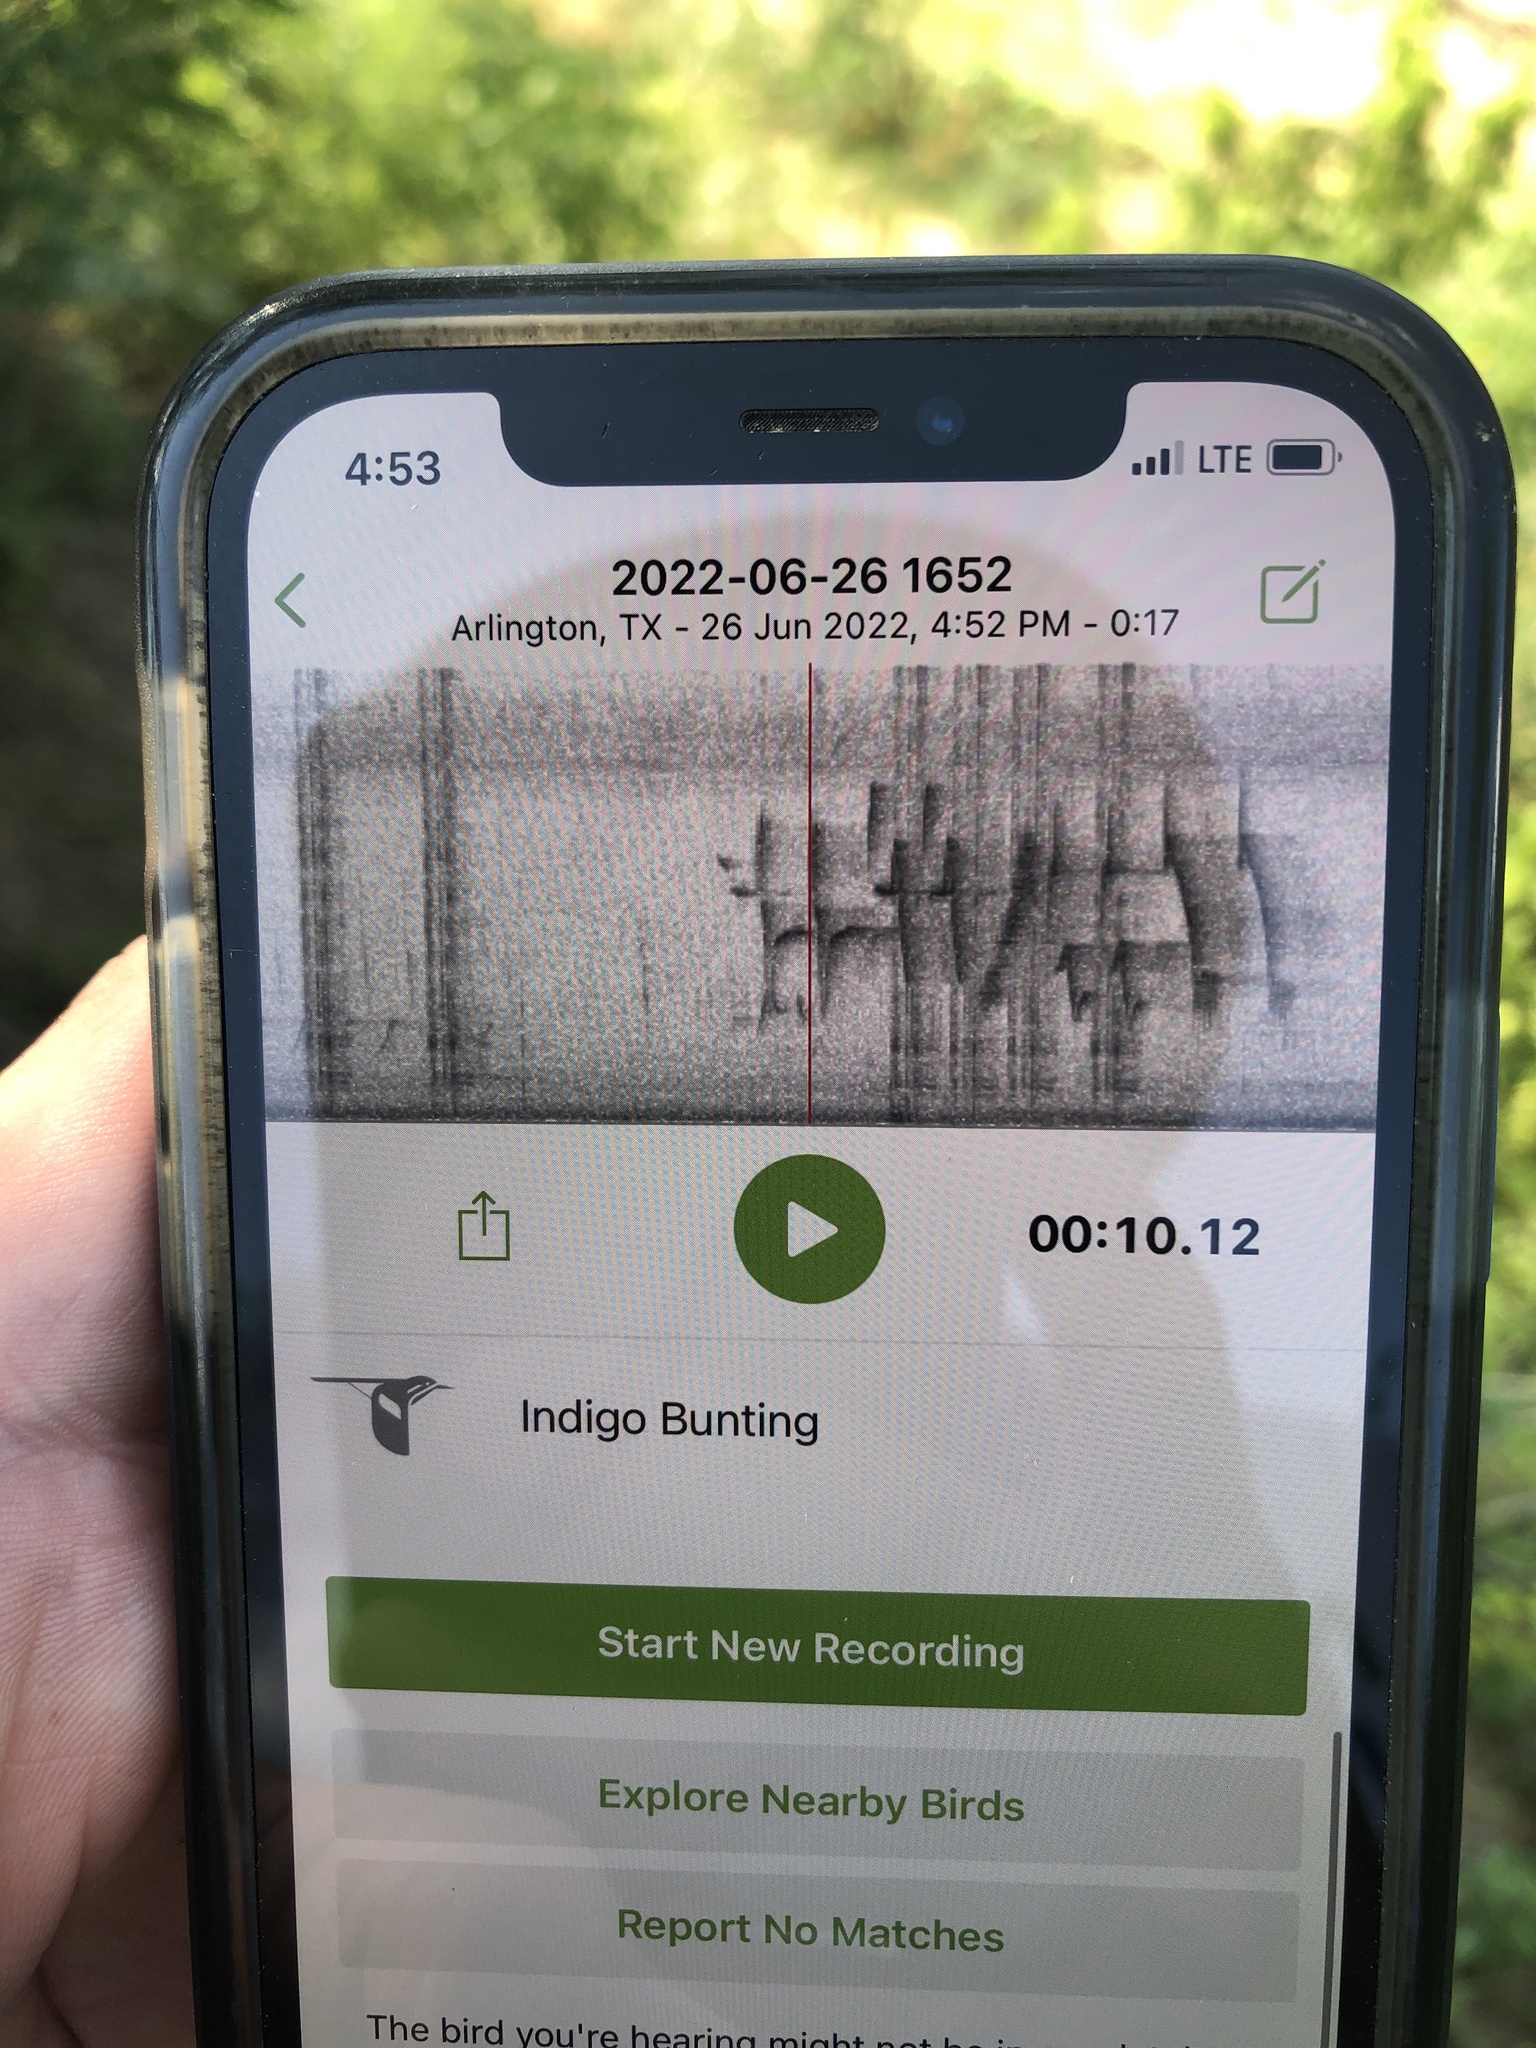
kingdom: Animalia
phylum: Chordata
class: Aves
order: Passeriformes
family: Cardinalidae
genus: Passerina
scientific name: Passerina cyanea
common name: Indigo bunting
